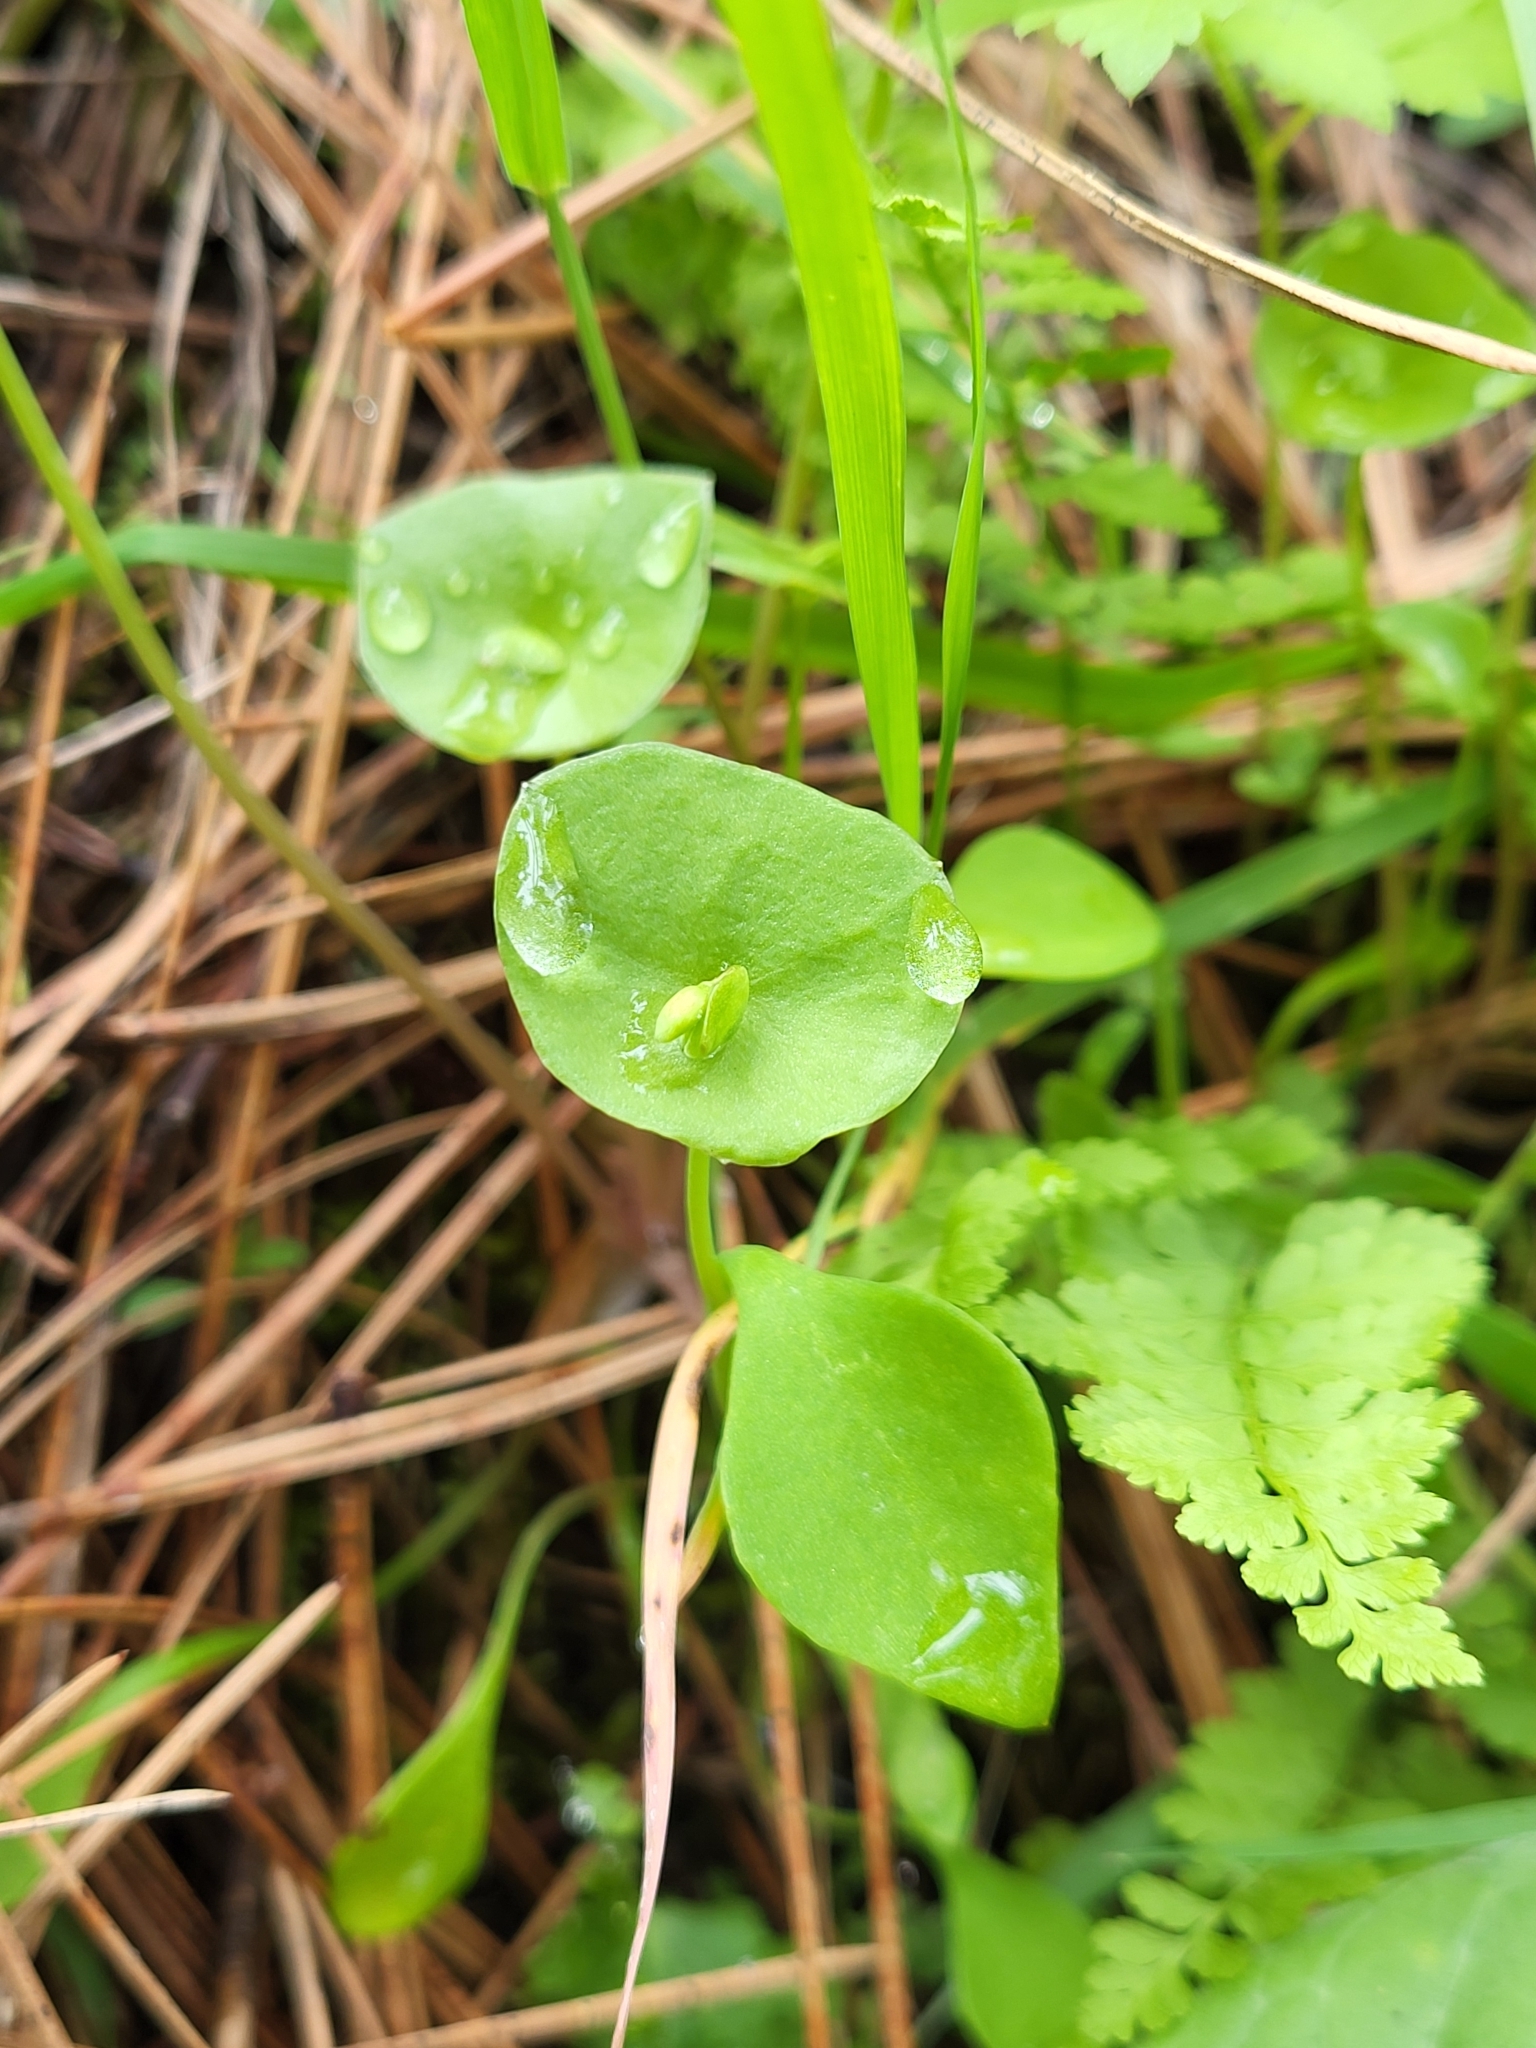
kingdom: Plantae
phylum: Tracheophyta
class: Magnoliopsida
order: Caryophyllales
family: Montiaceae
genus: Claytonia
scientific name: Claytonia perfoliata
